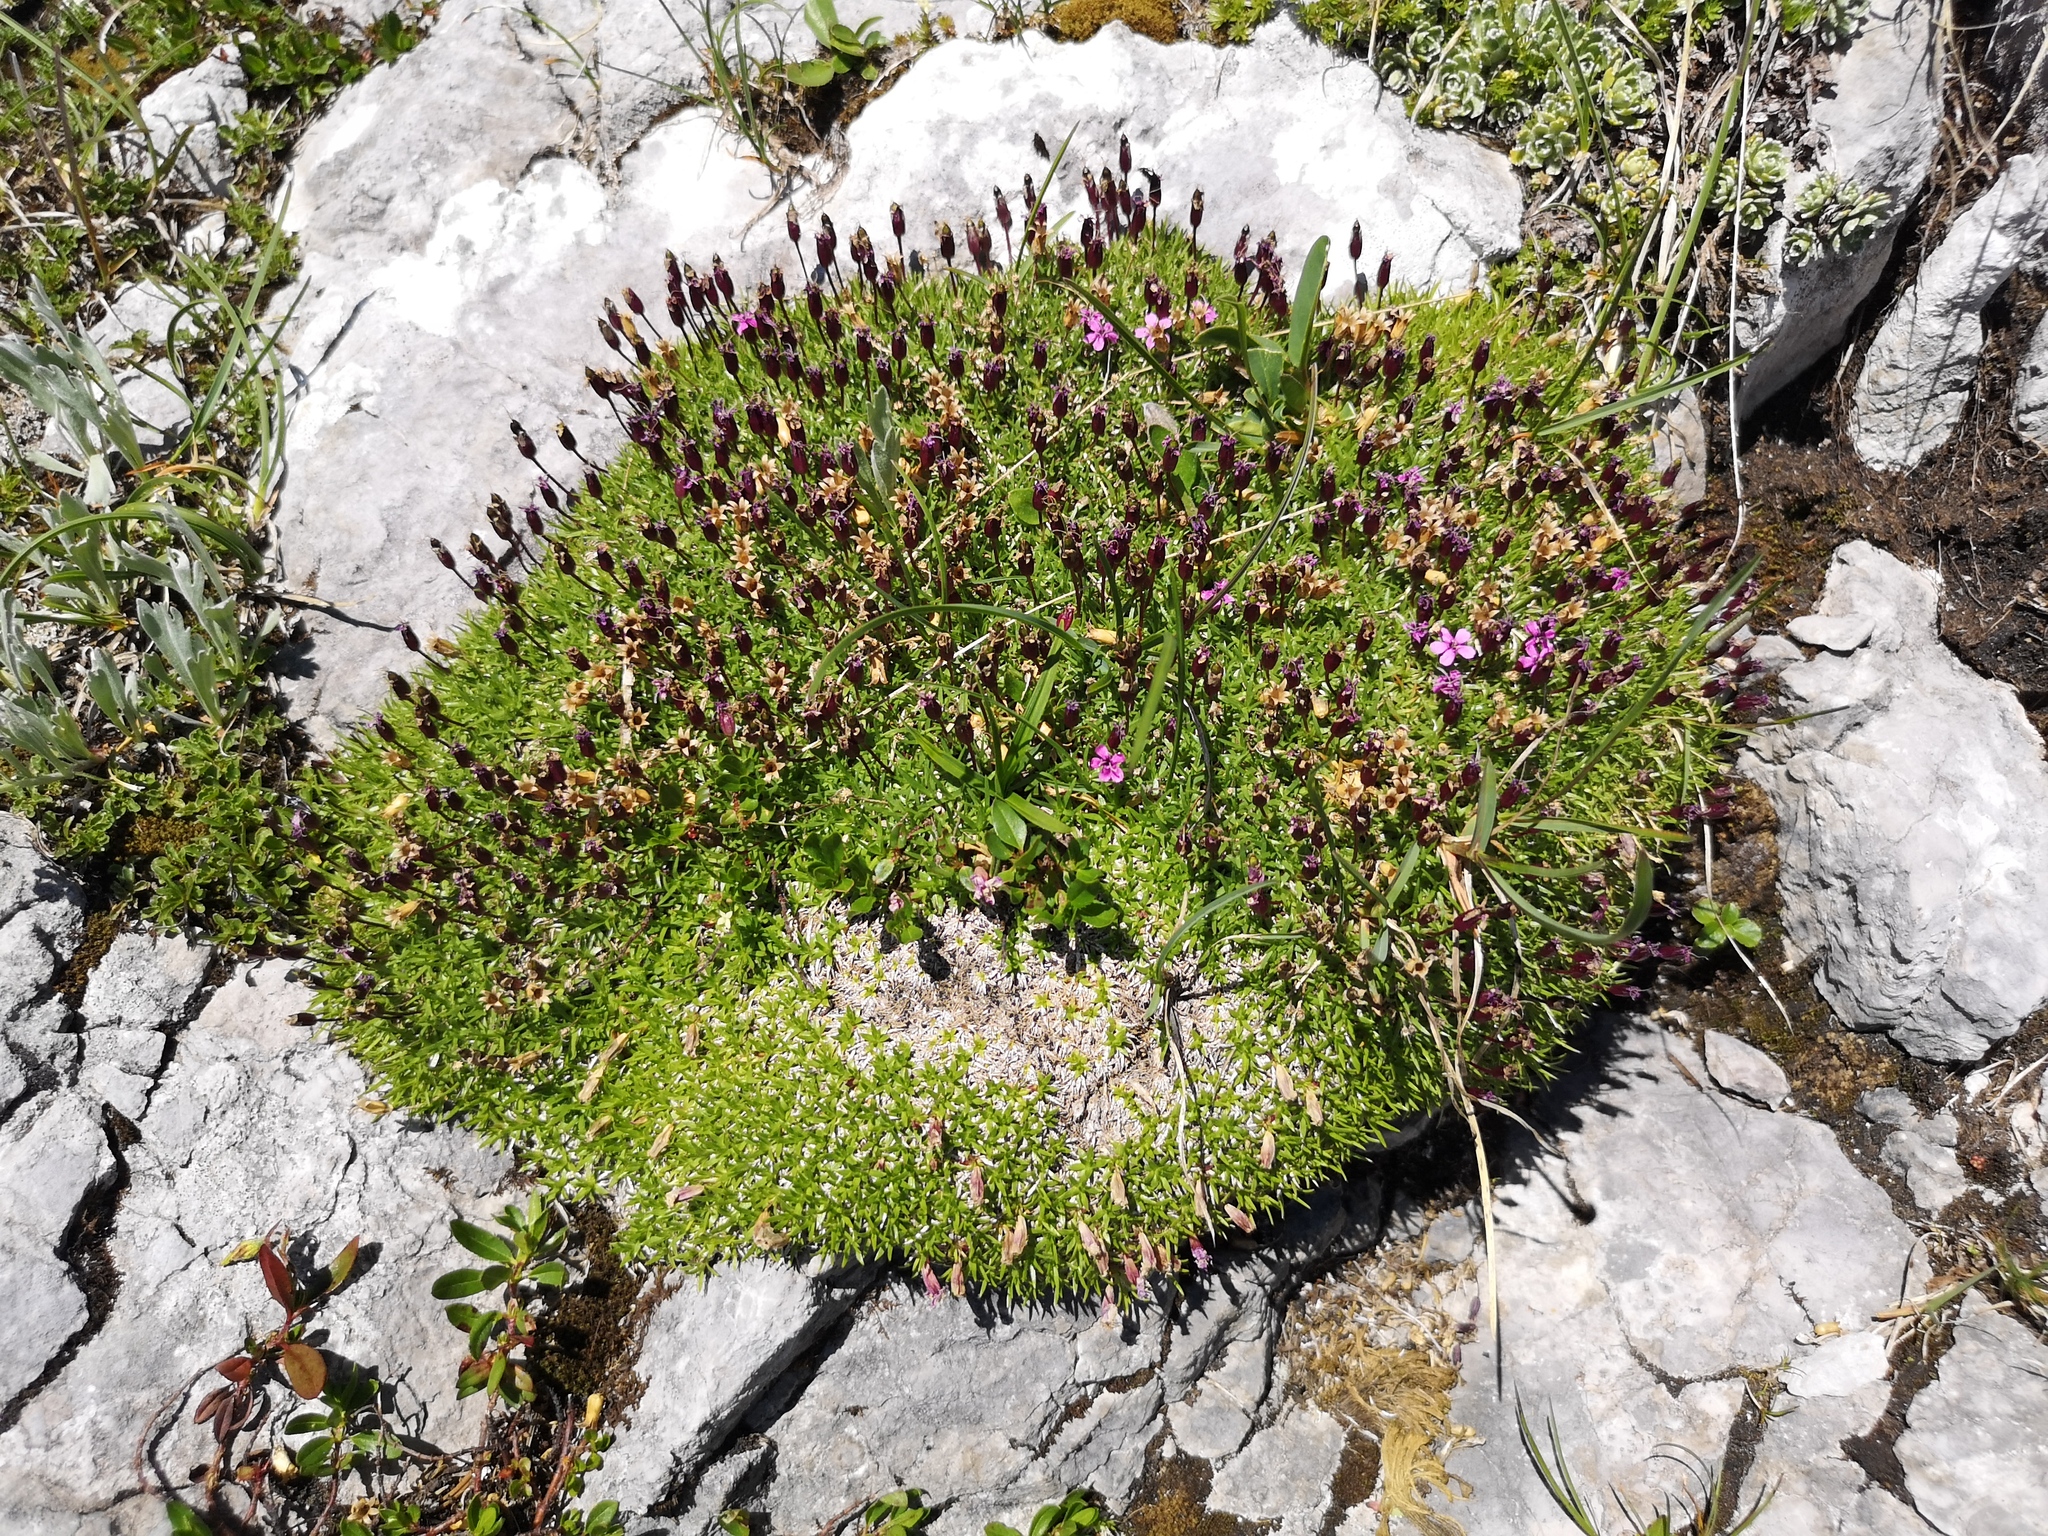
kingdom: Plantae
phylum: Tracheophyta
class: Magnoliopsida
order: Caryophyllales
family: Caryophyllaceae
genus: Silene
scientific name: Silene acaulis
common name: Moss campion
